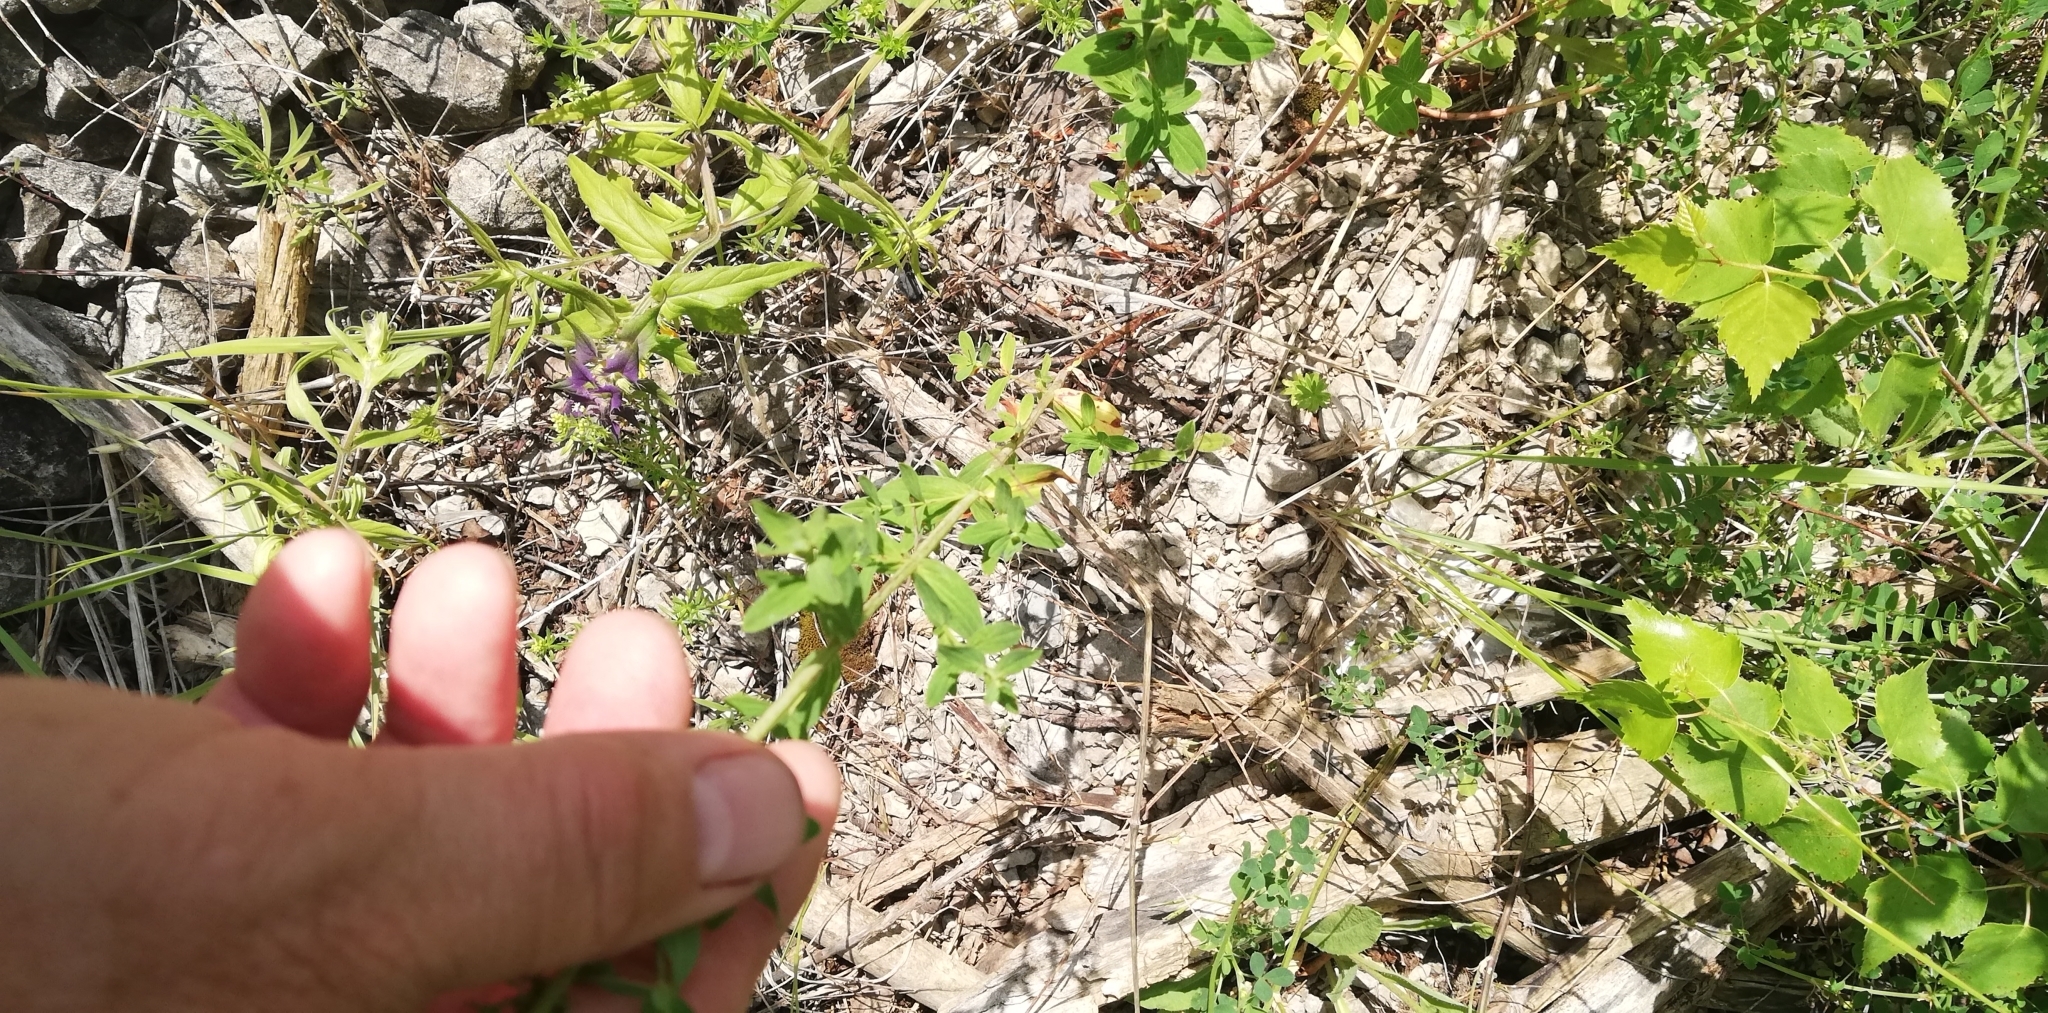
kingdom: Plantae
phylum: Tracheophyta
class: Magnoliopsida
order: Malpighiales
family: Hypericaceae
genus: Hypericum
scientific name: Hypericum perforatum
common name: Common st. johnswort
